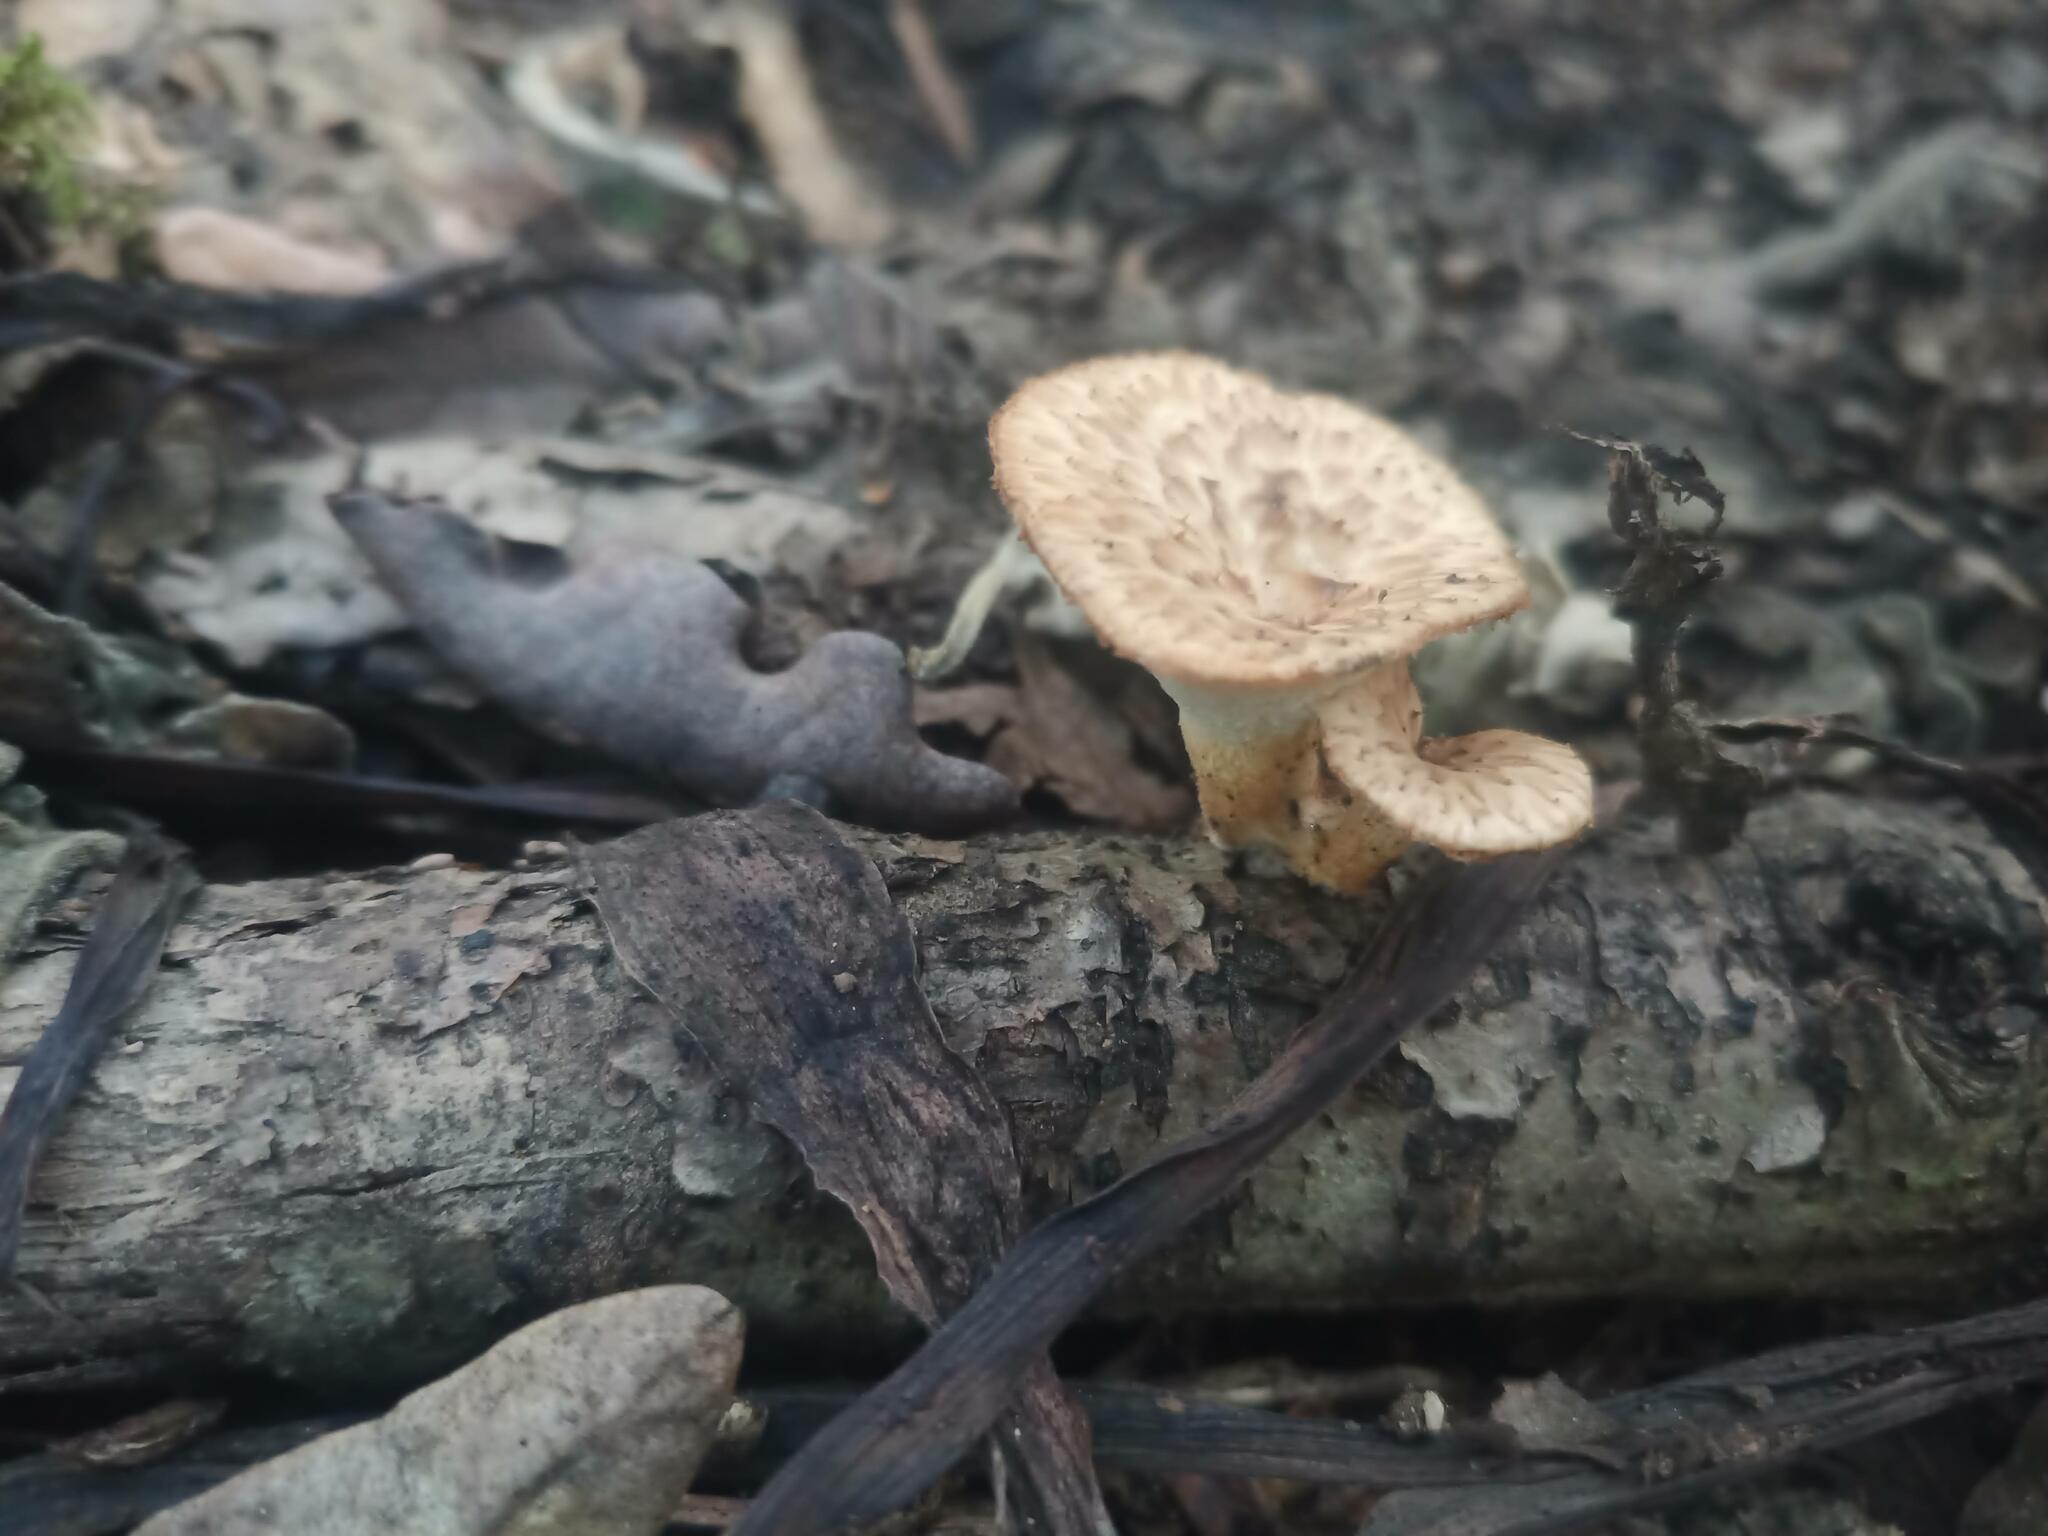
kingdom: Fungi
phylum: Basidiomycota
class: Agaricomycetes
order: Polyporales
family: Polyporaceae
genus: Polyporus
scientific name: Polyporus tuberaster
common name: Tuberous polypore
